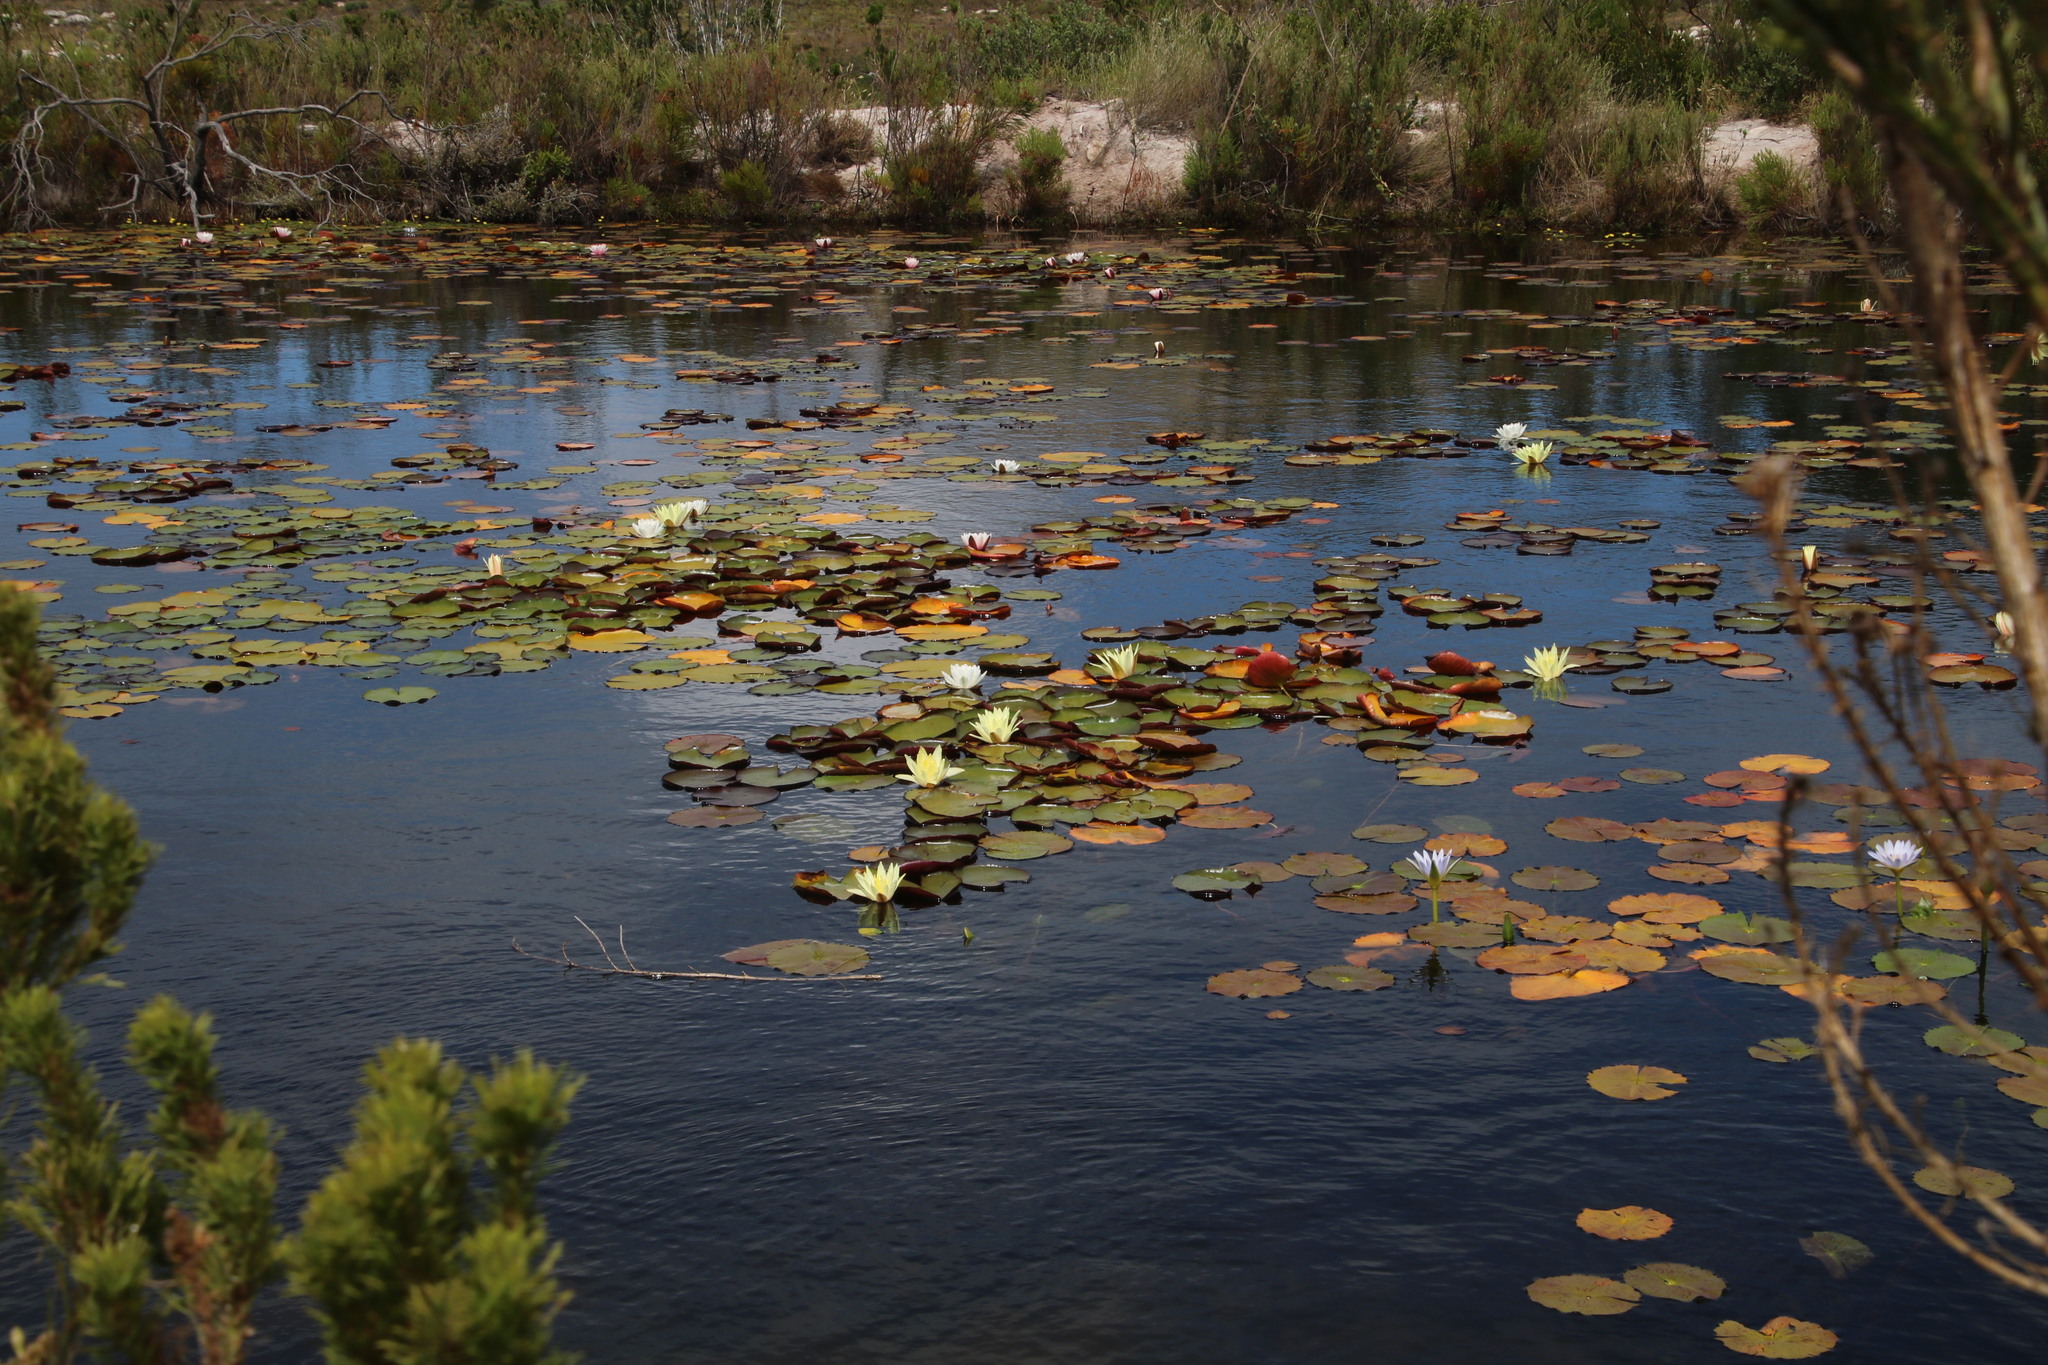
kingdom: Plantae
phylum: Tracheophyta
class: Magnoliopsida
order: Nymphaeales
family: Nymphaeaceae
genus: Nymphaea
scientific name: Nymphaea nouchali
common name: Blue lotus
